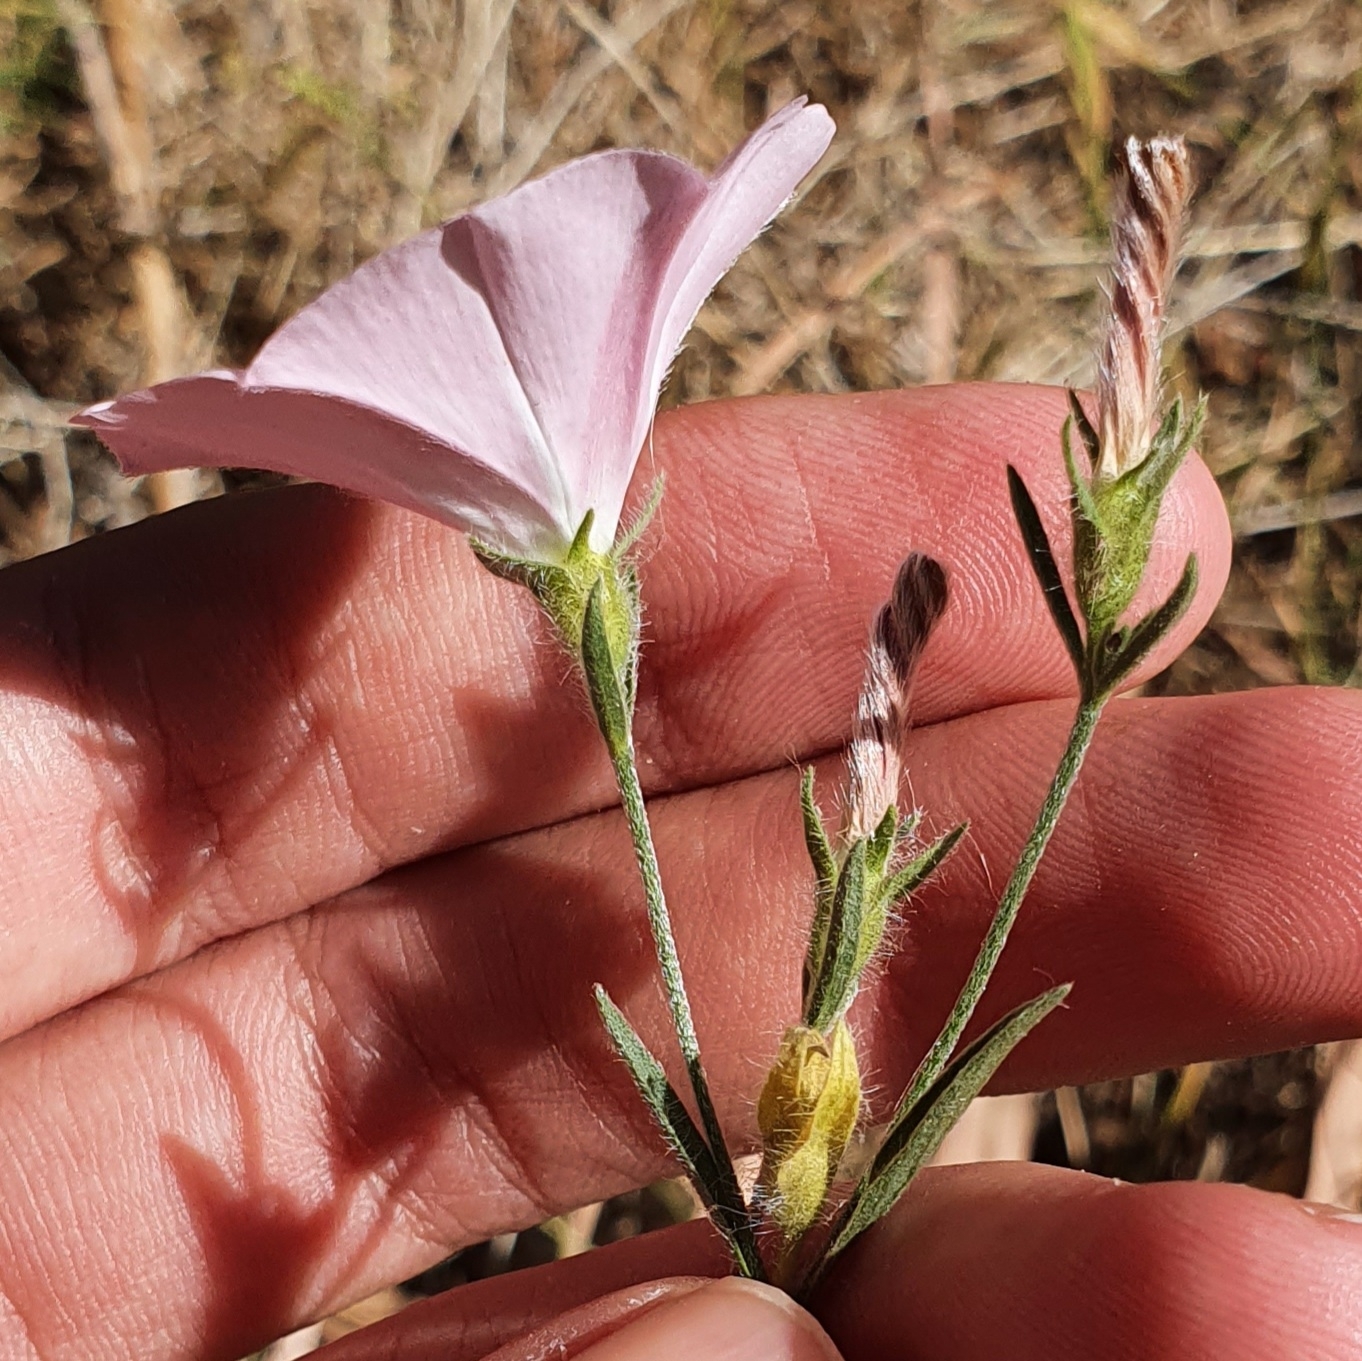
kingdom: Plantae
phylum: Tracheophyta
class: Magnoliopsida
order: Solanales
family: Convolvulaceae
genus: Convolvulus
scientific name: Convolvulus cantabrica
